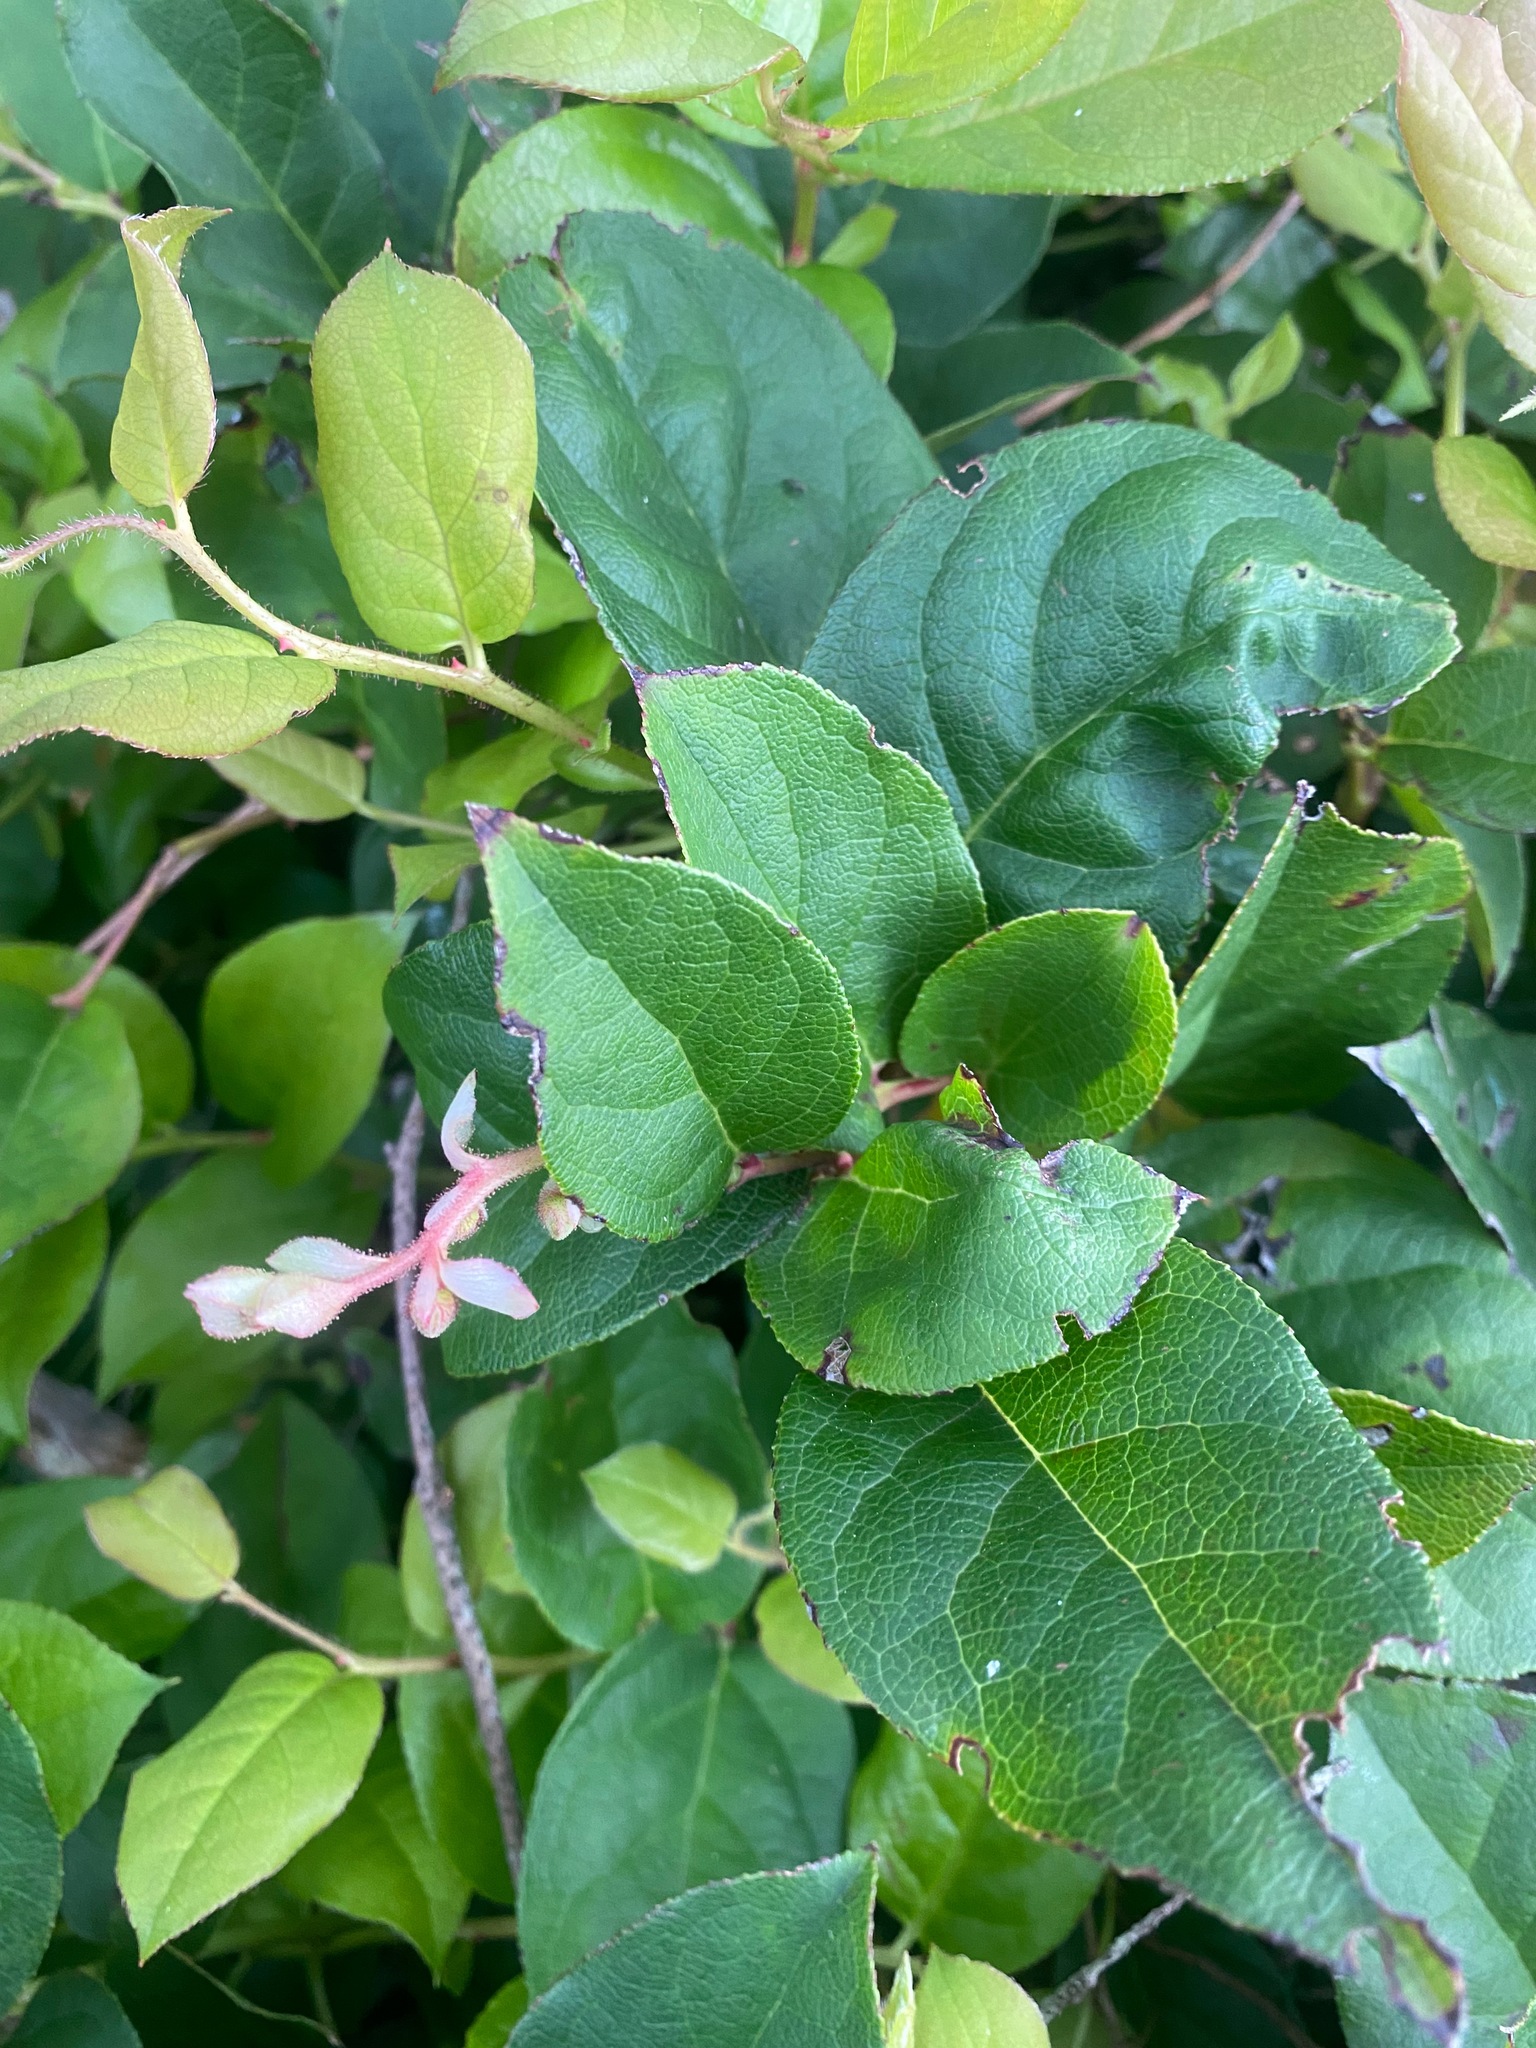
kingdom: Plantae
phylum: Tracheophyta
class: Magnoliopsida
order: Ericales
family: Ericaceae
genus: Gaultheria
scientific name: Gaultheria shallon
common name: Shallon
